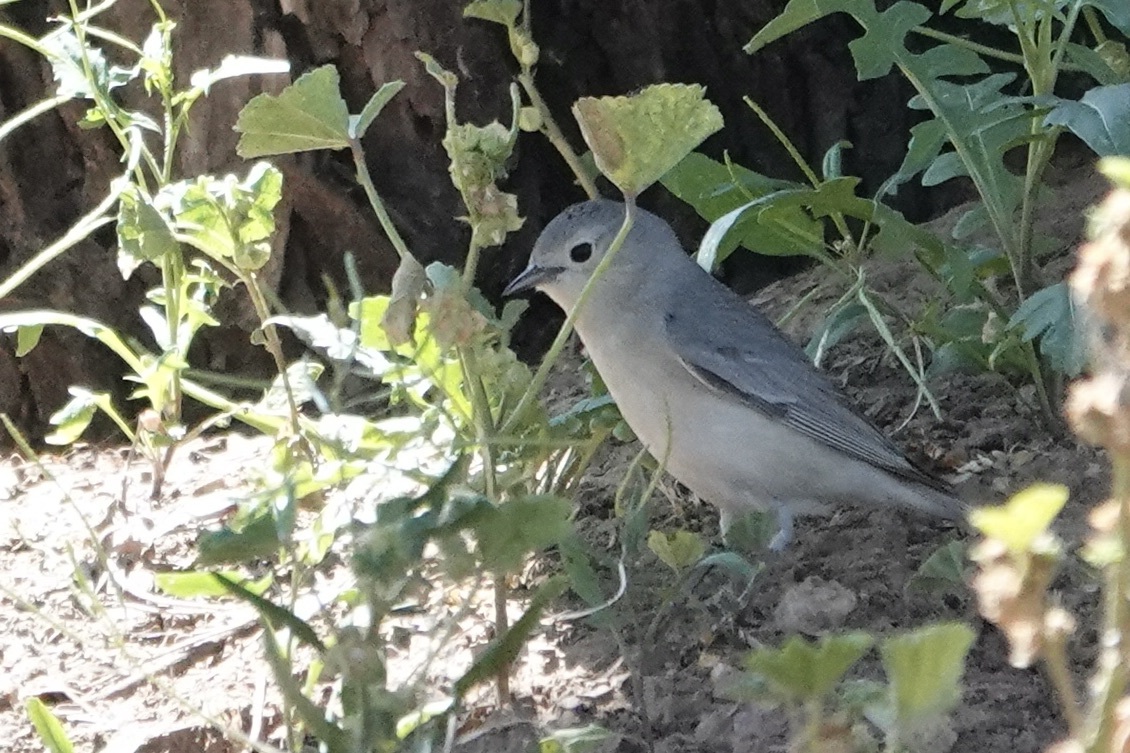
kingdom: Animalia
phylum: Chordata
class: Aves
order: Passeriformes
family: Parulidae
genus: Leiothlypis
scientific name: Leiothlypis luciae
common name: Lucy's warbler
